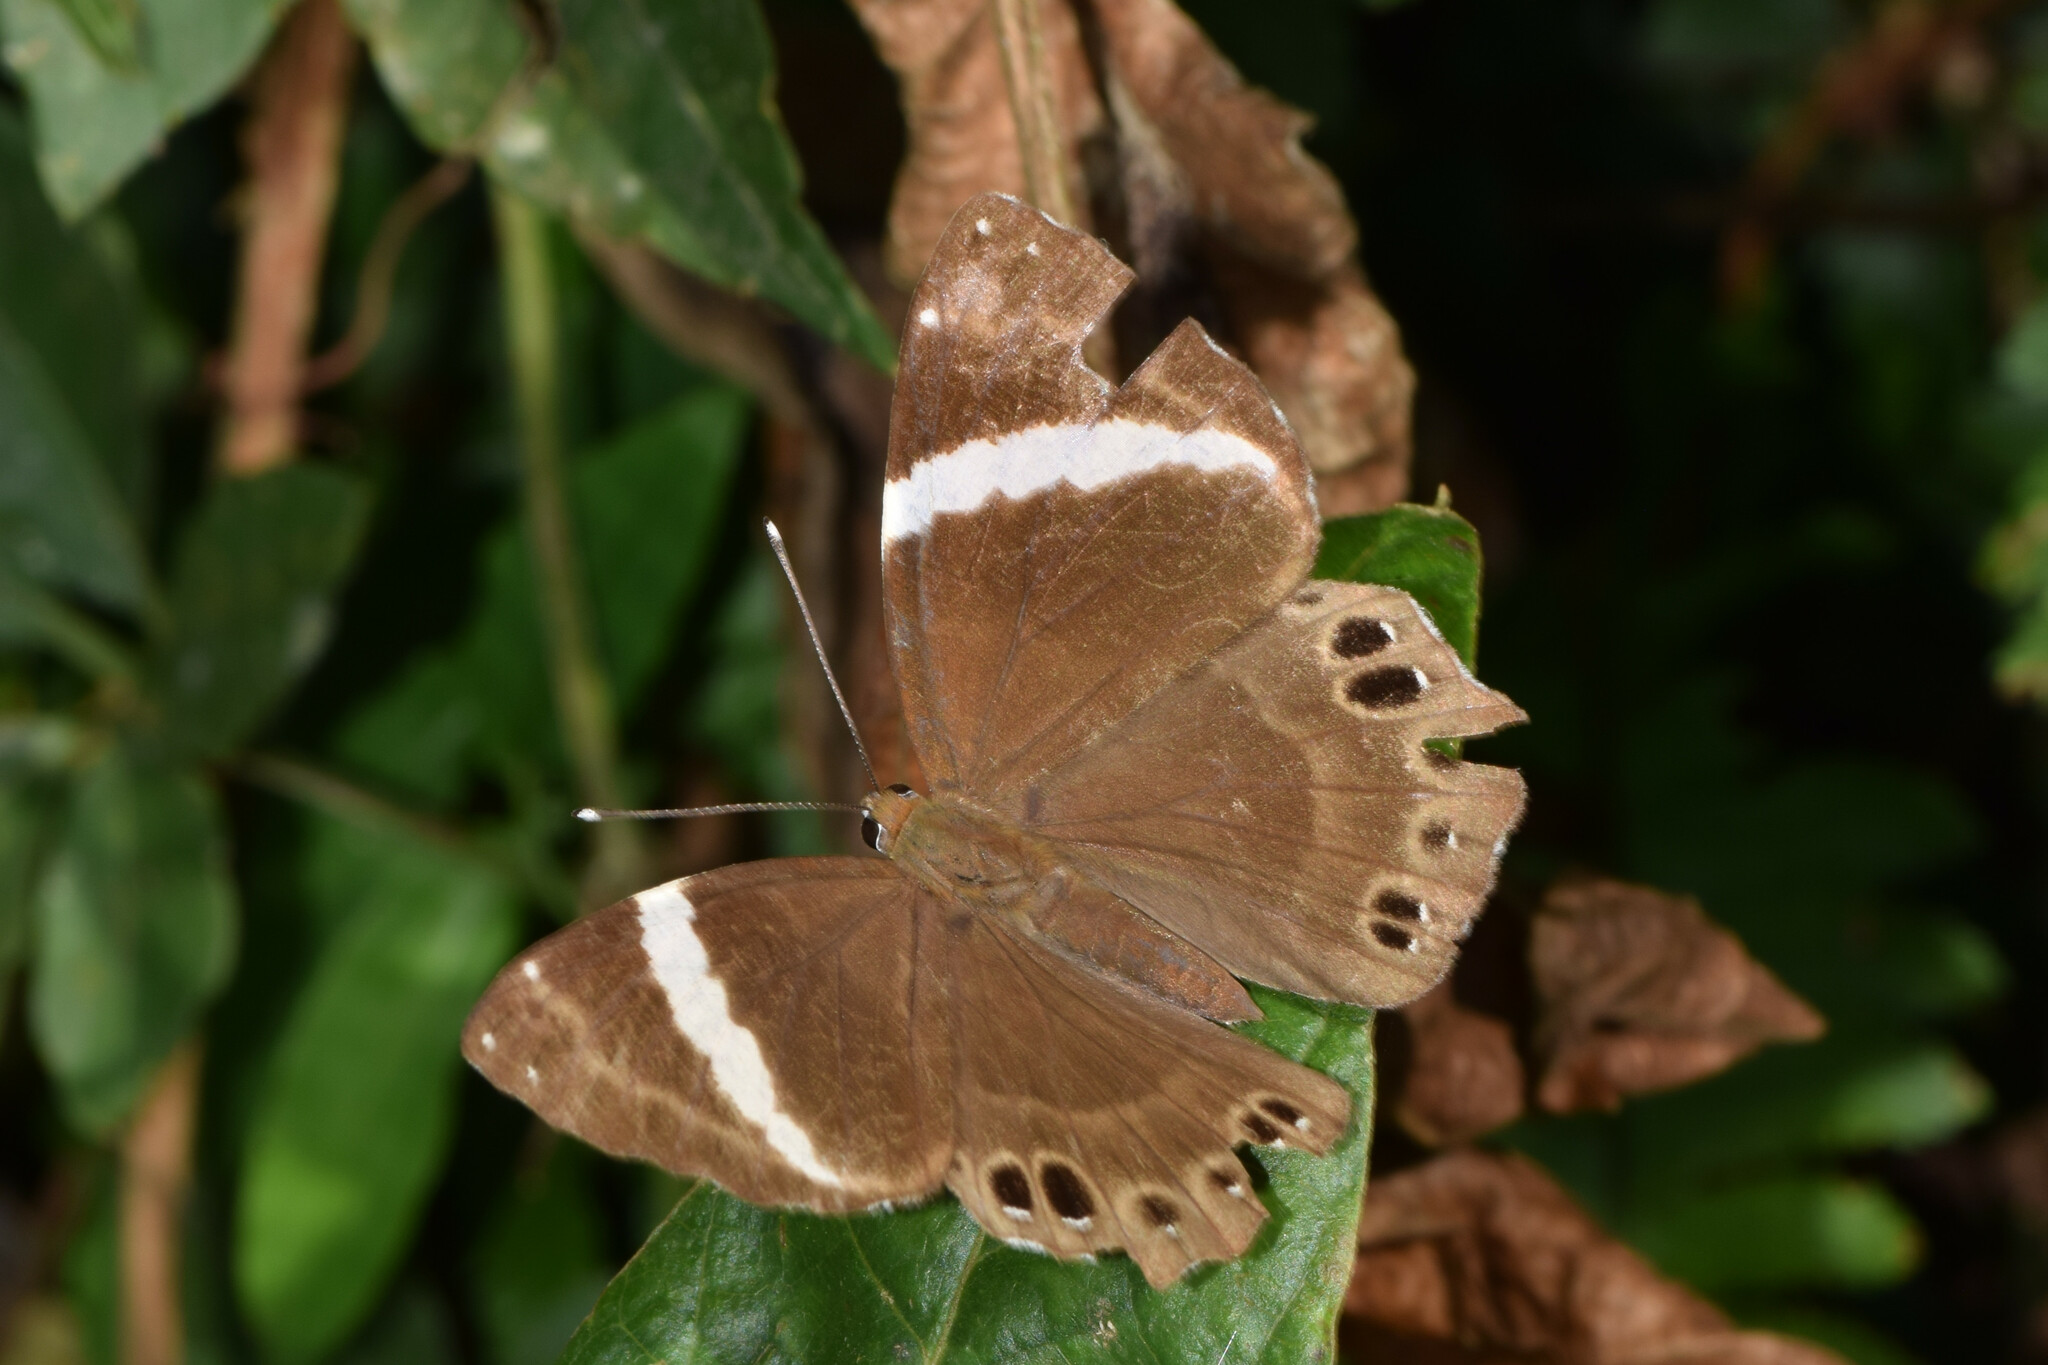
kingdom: Animalia
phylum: Arthropoda
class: Insecta
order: Lepidoptera
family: Lycaenidae
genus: Abisara
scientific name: Abisara fylla
